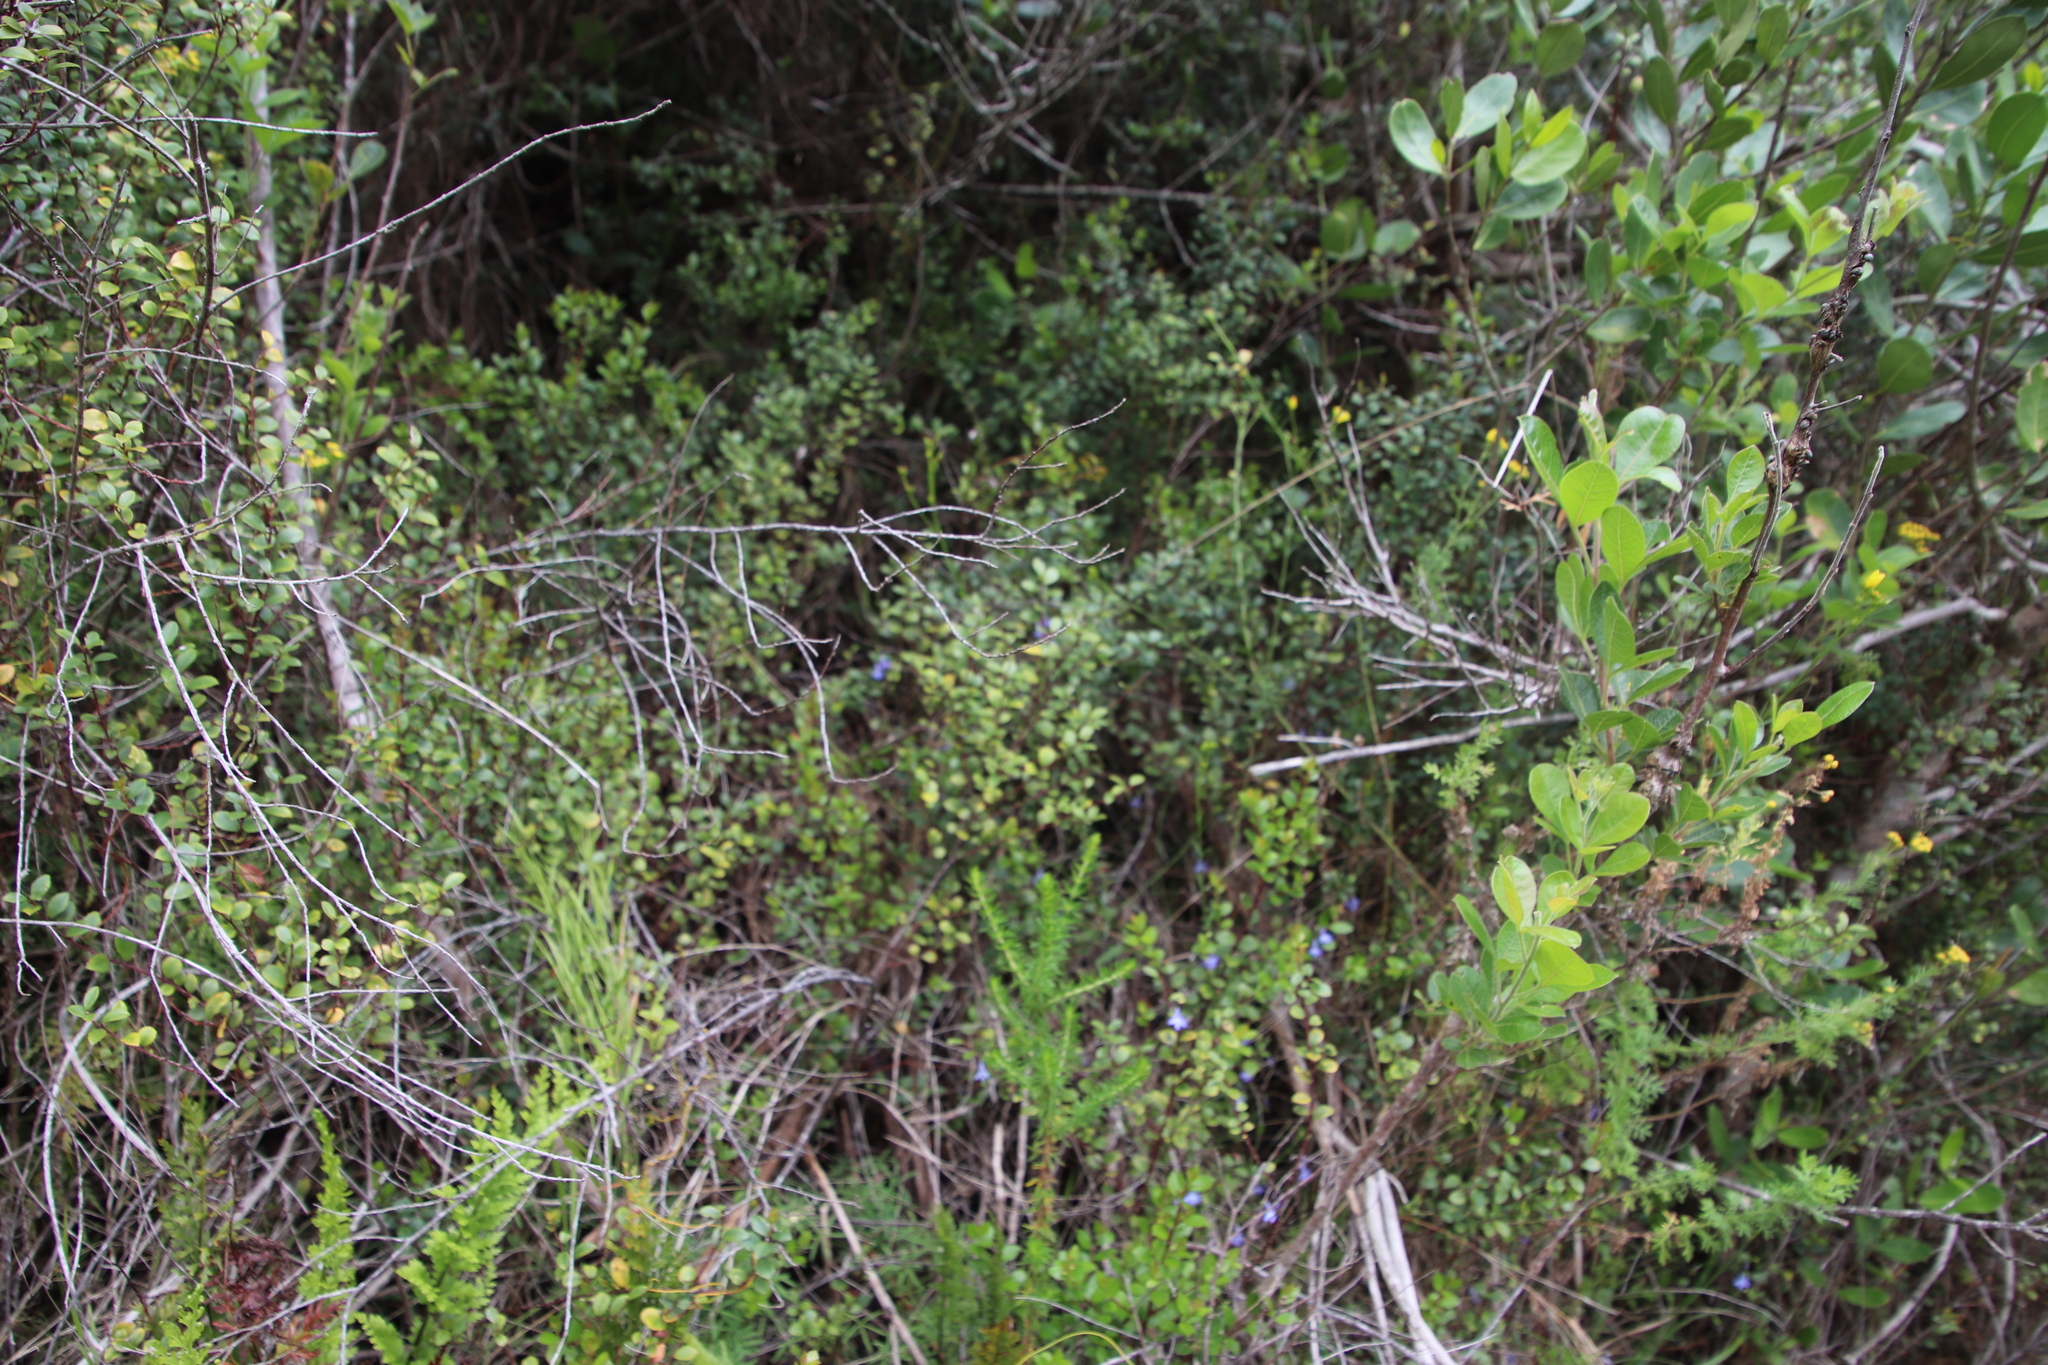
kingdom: Plantae
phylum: Tracheophyta
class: Magnoliopsida
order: Ericales
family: Primulaceae
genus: Myrsine
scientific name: Myrsine africana
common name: African-boxwood
